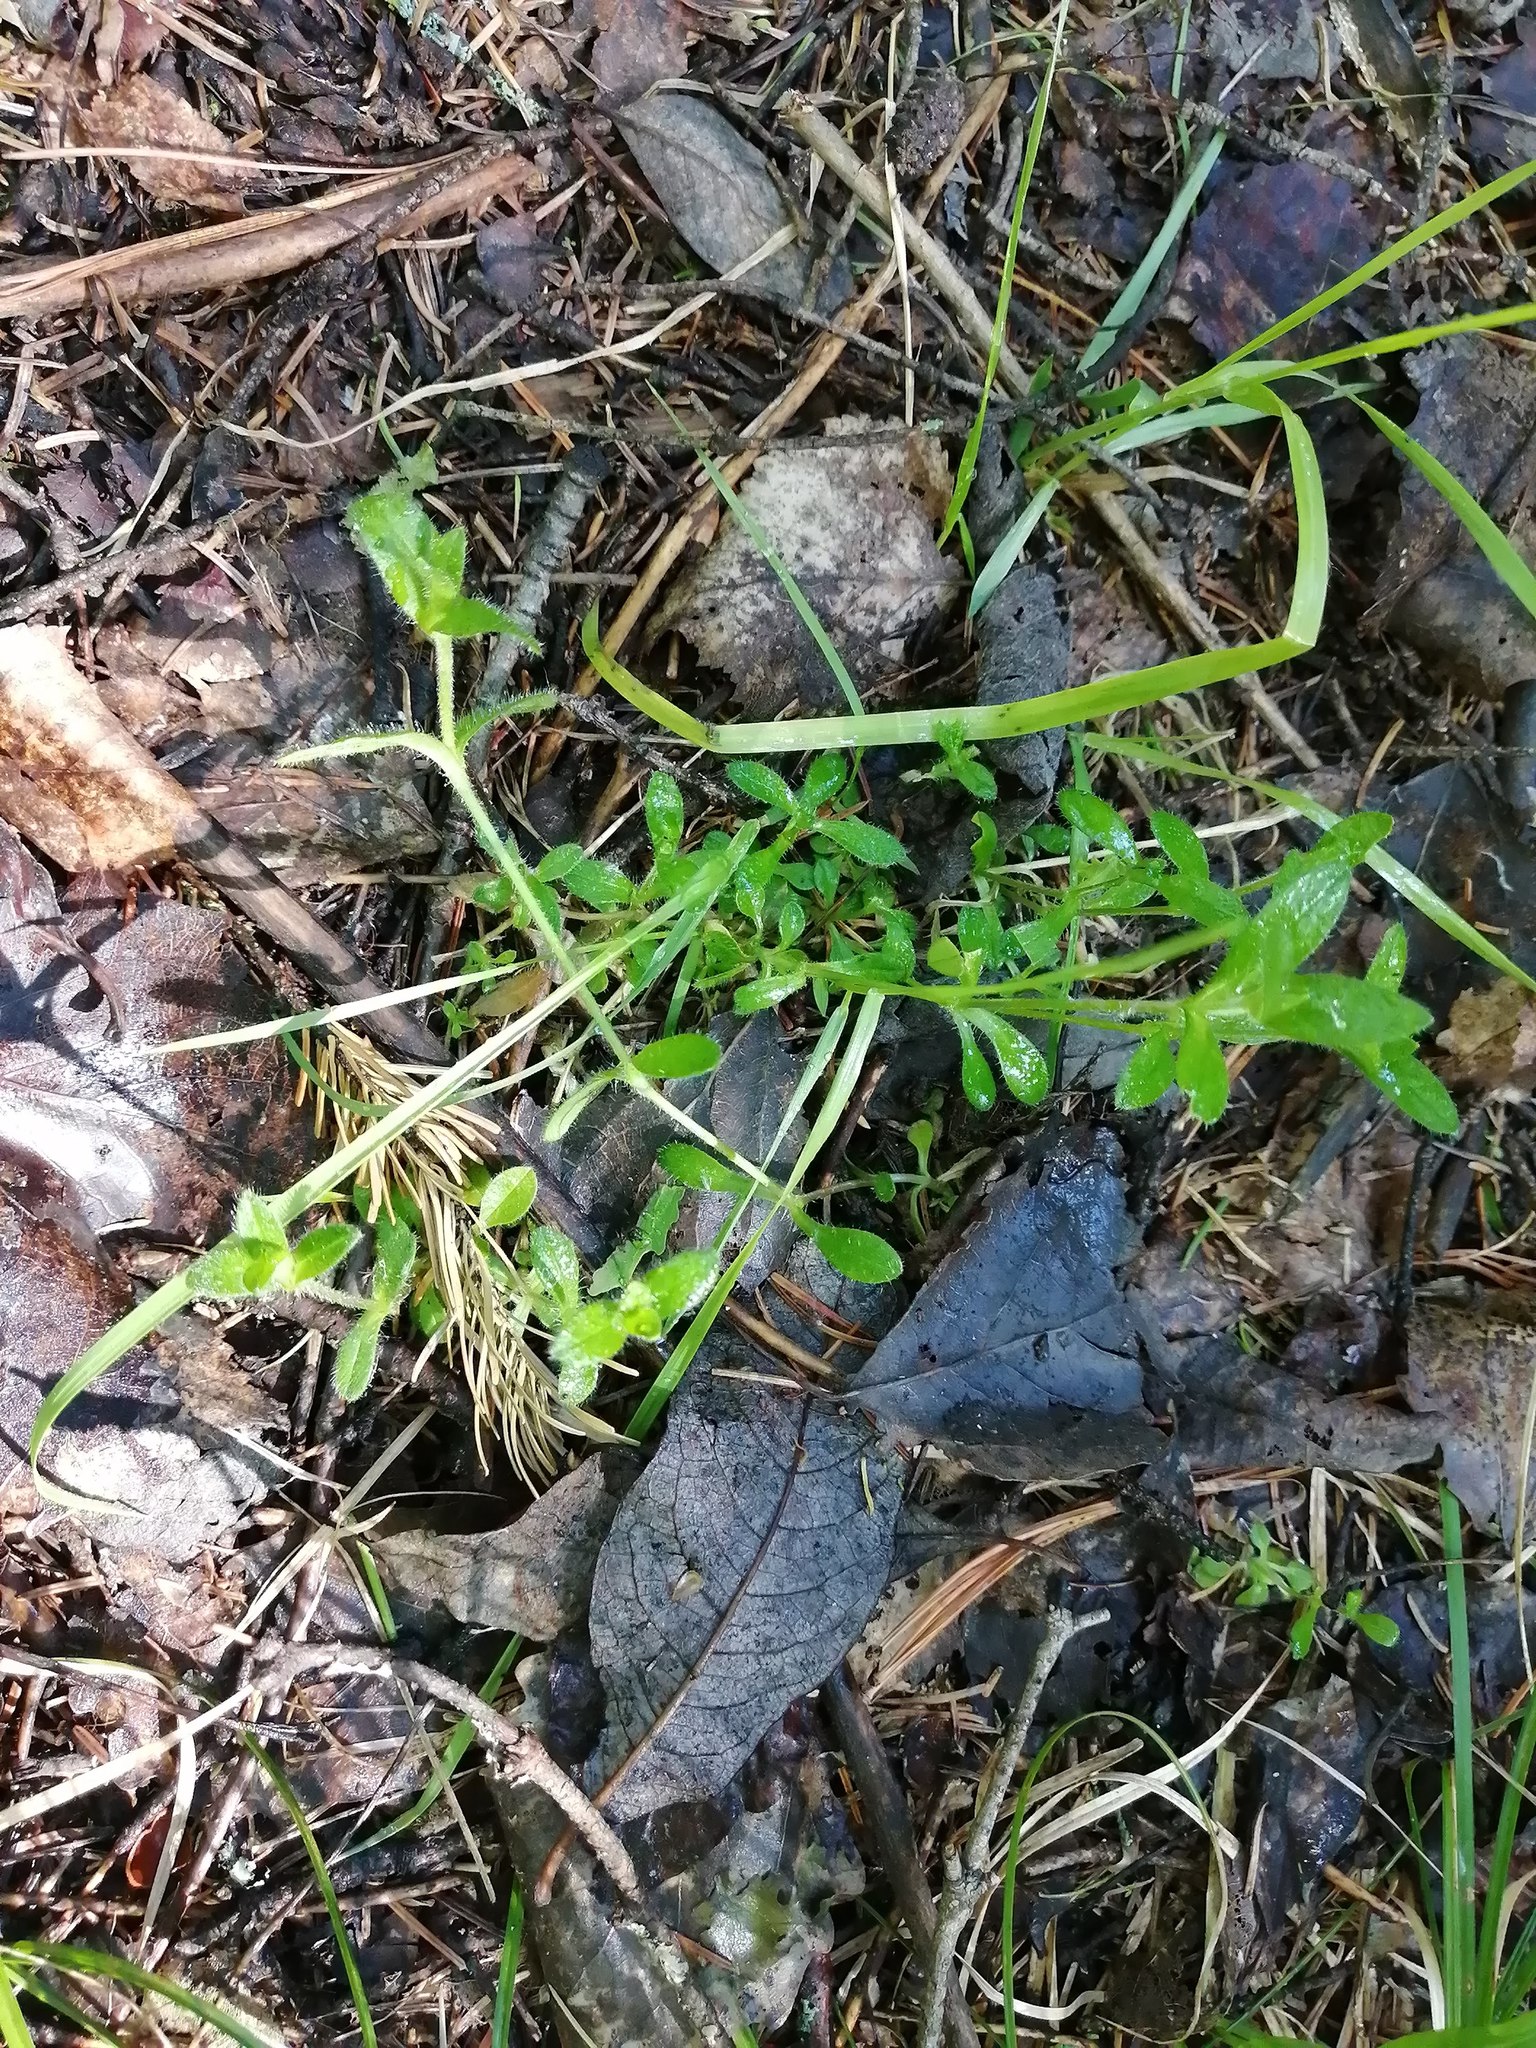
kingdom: Plantae
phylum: Tracheophyta
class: Magnoliopsida
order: Caryophyllales
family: Caryophyllaceae
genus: Cerastium
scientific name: Cerastium holosteoides
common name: Big chickweed
